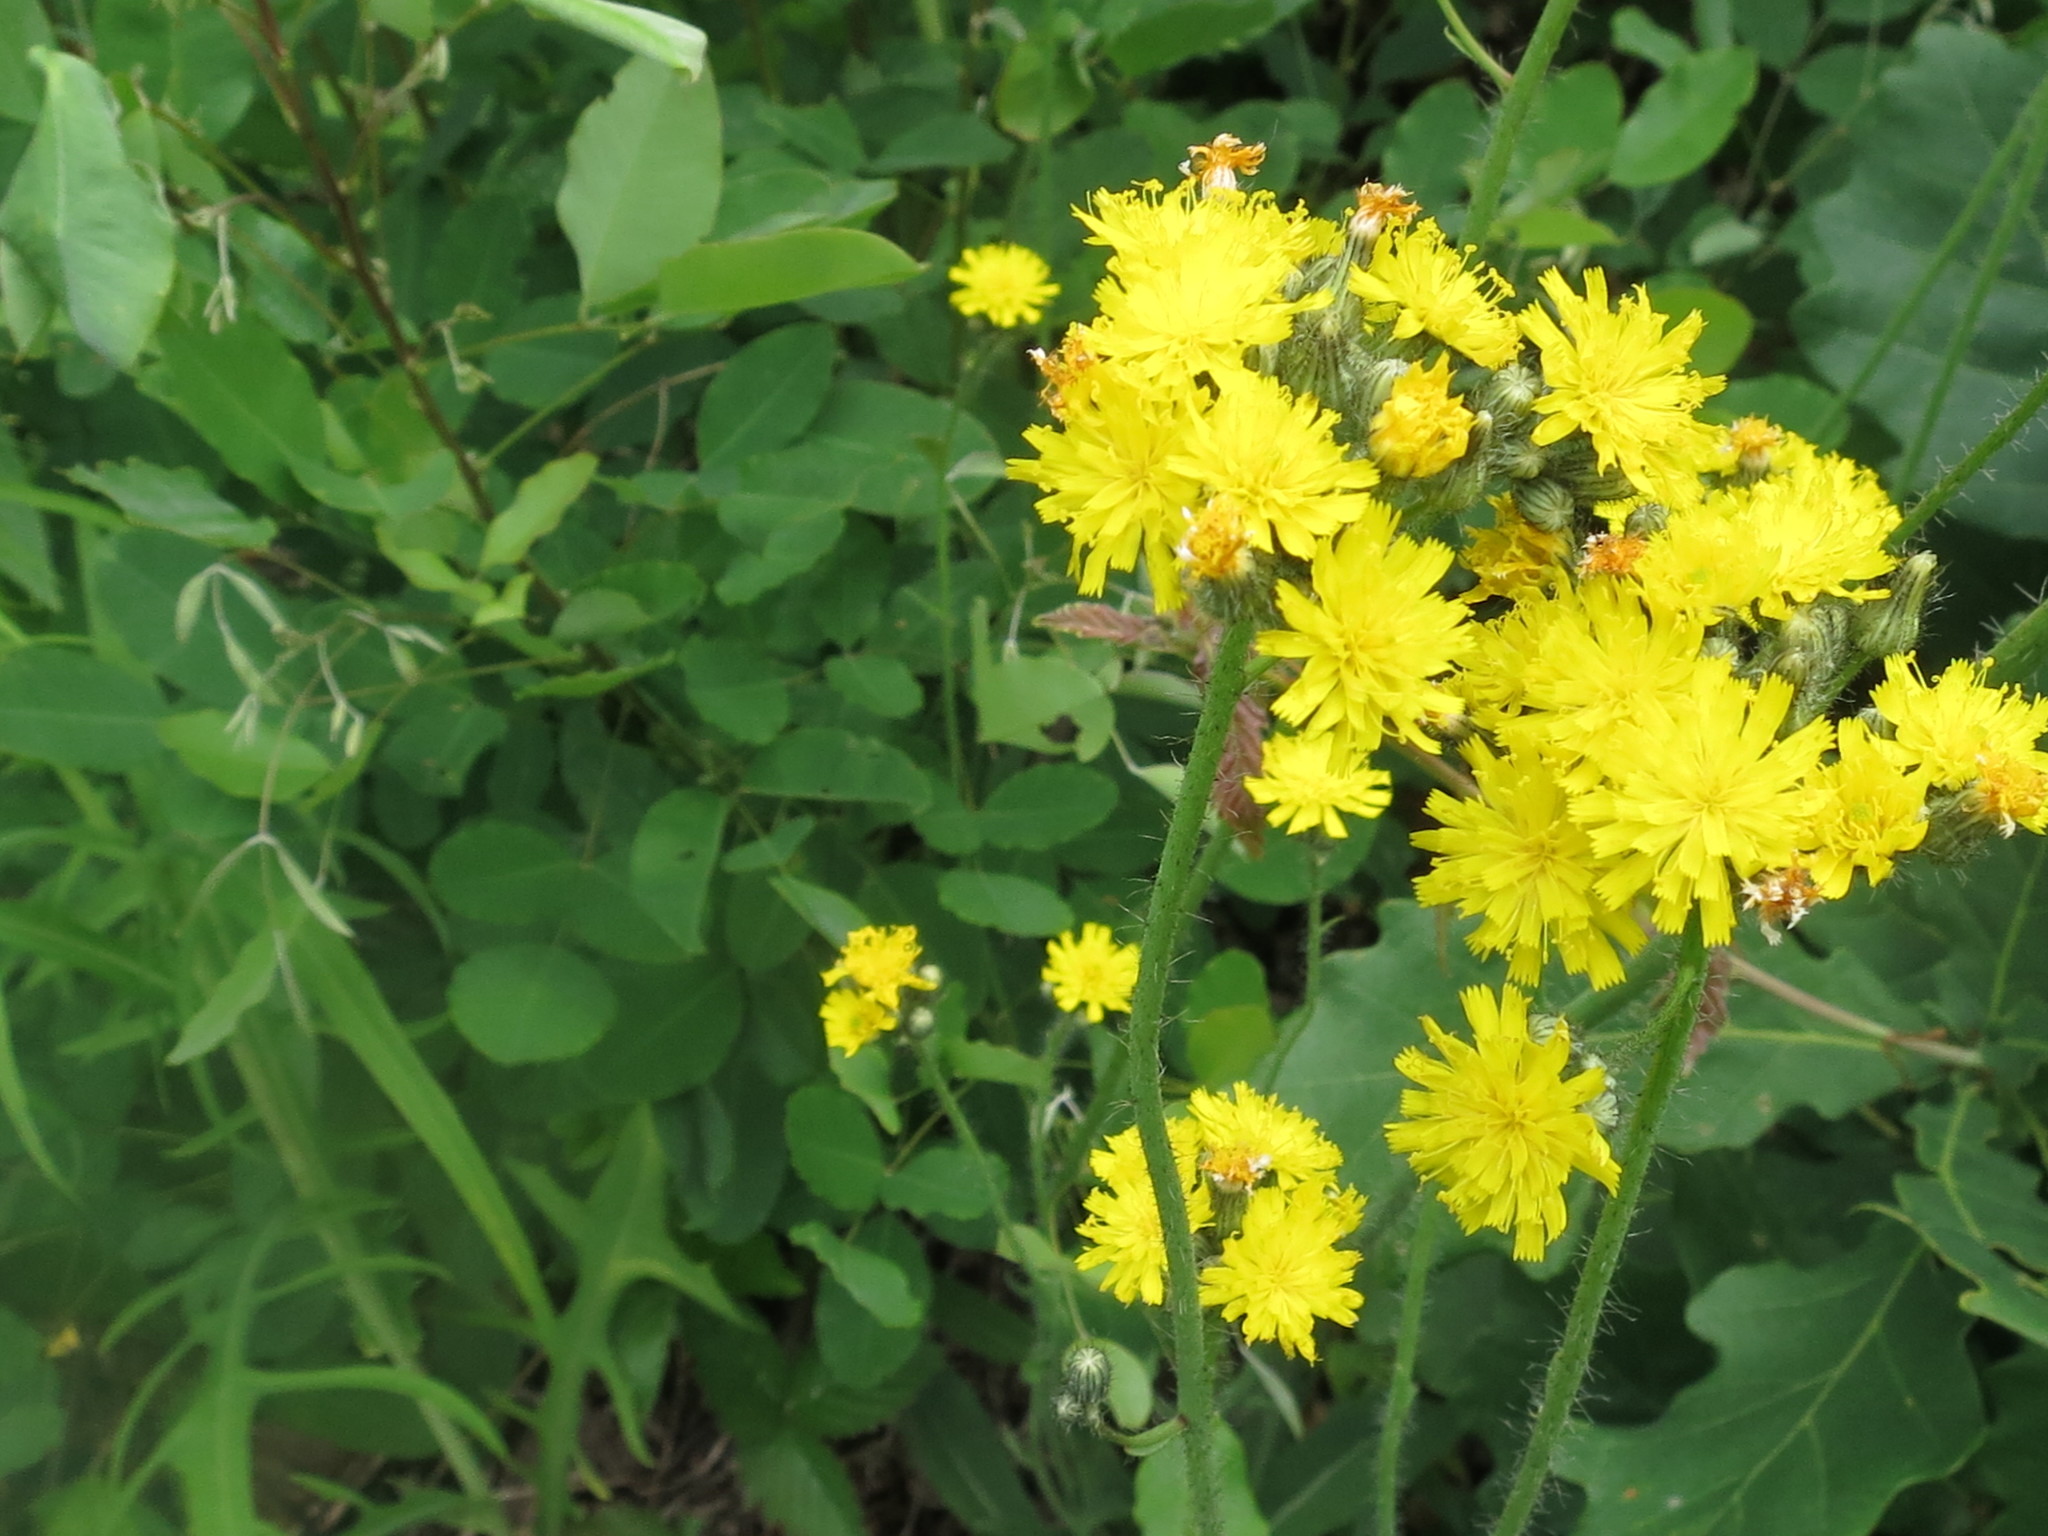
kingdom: Plantae
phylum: Tracheophyta
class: Magnoliopsida
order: Asterales
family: Asteraceae
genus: Pilosella
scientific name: Pilosella floribunda
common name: Glaucous hawkweed
